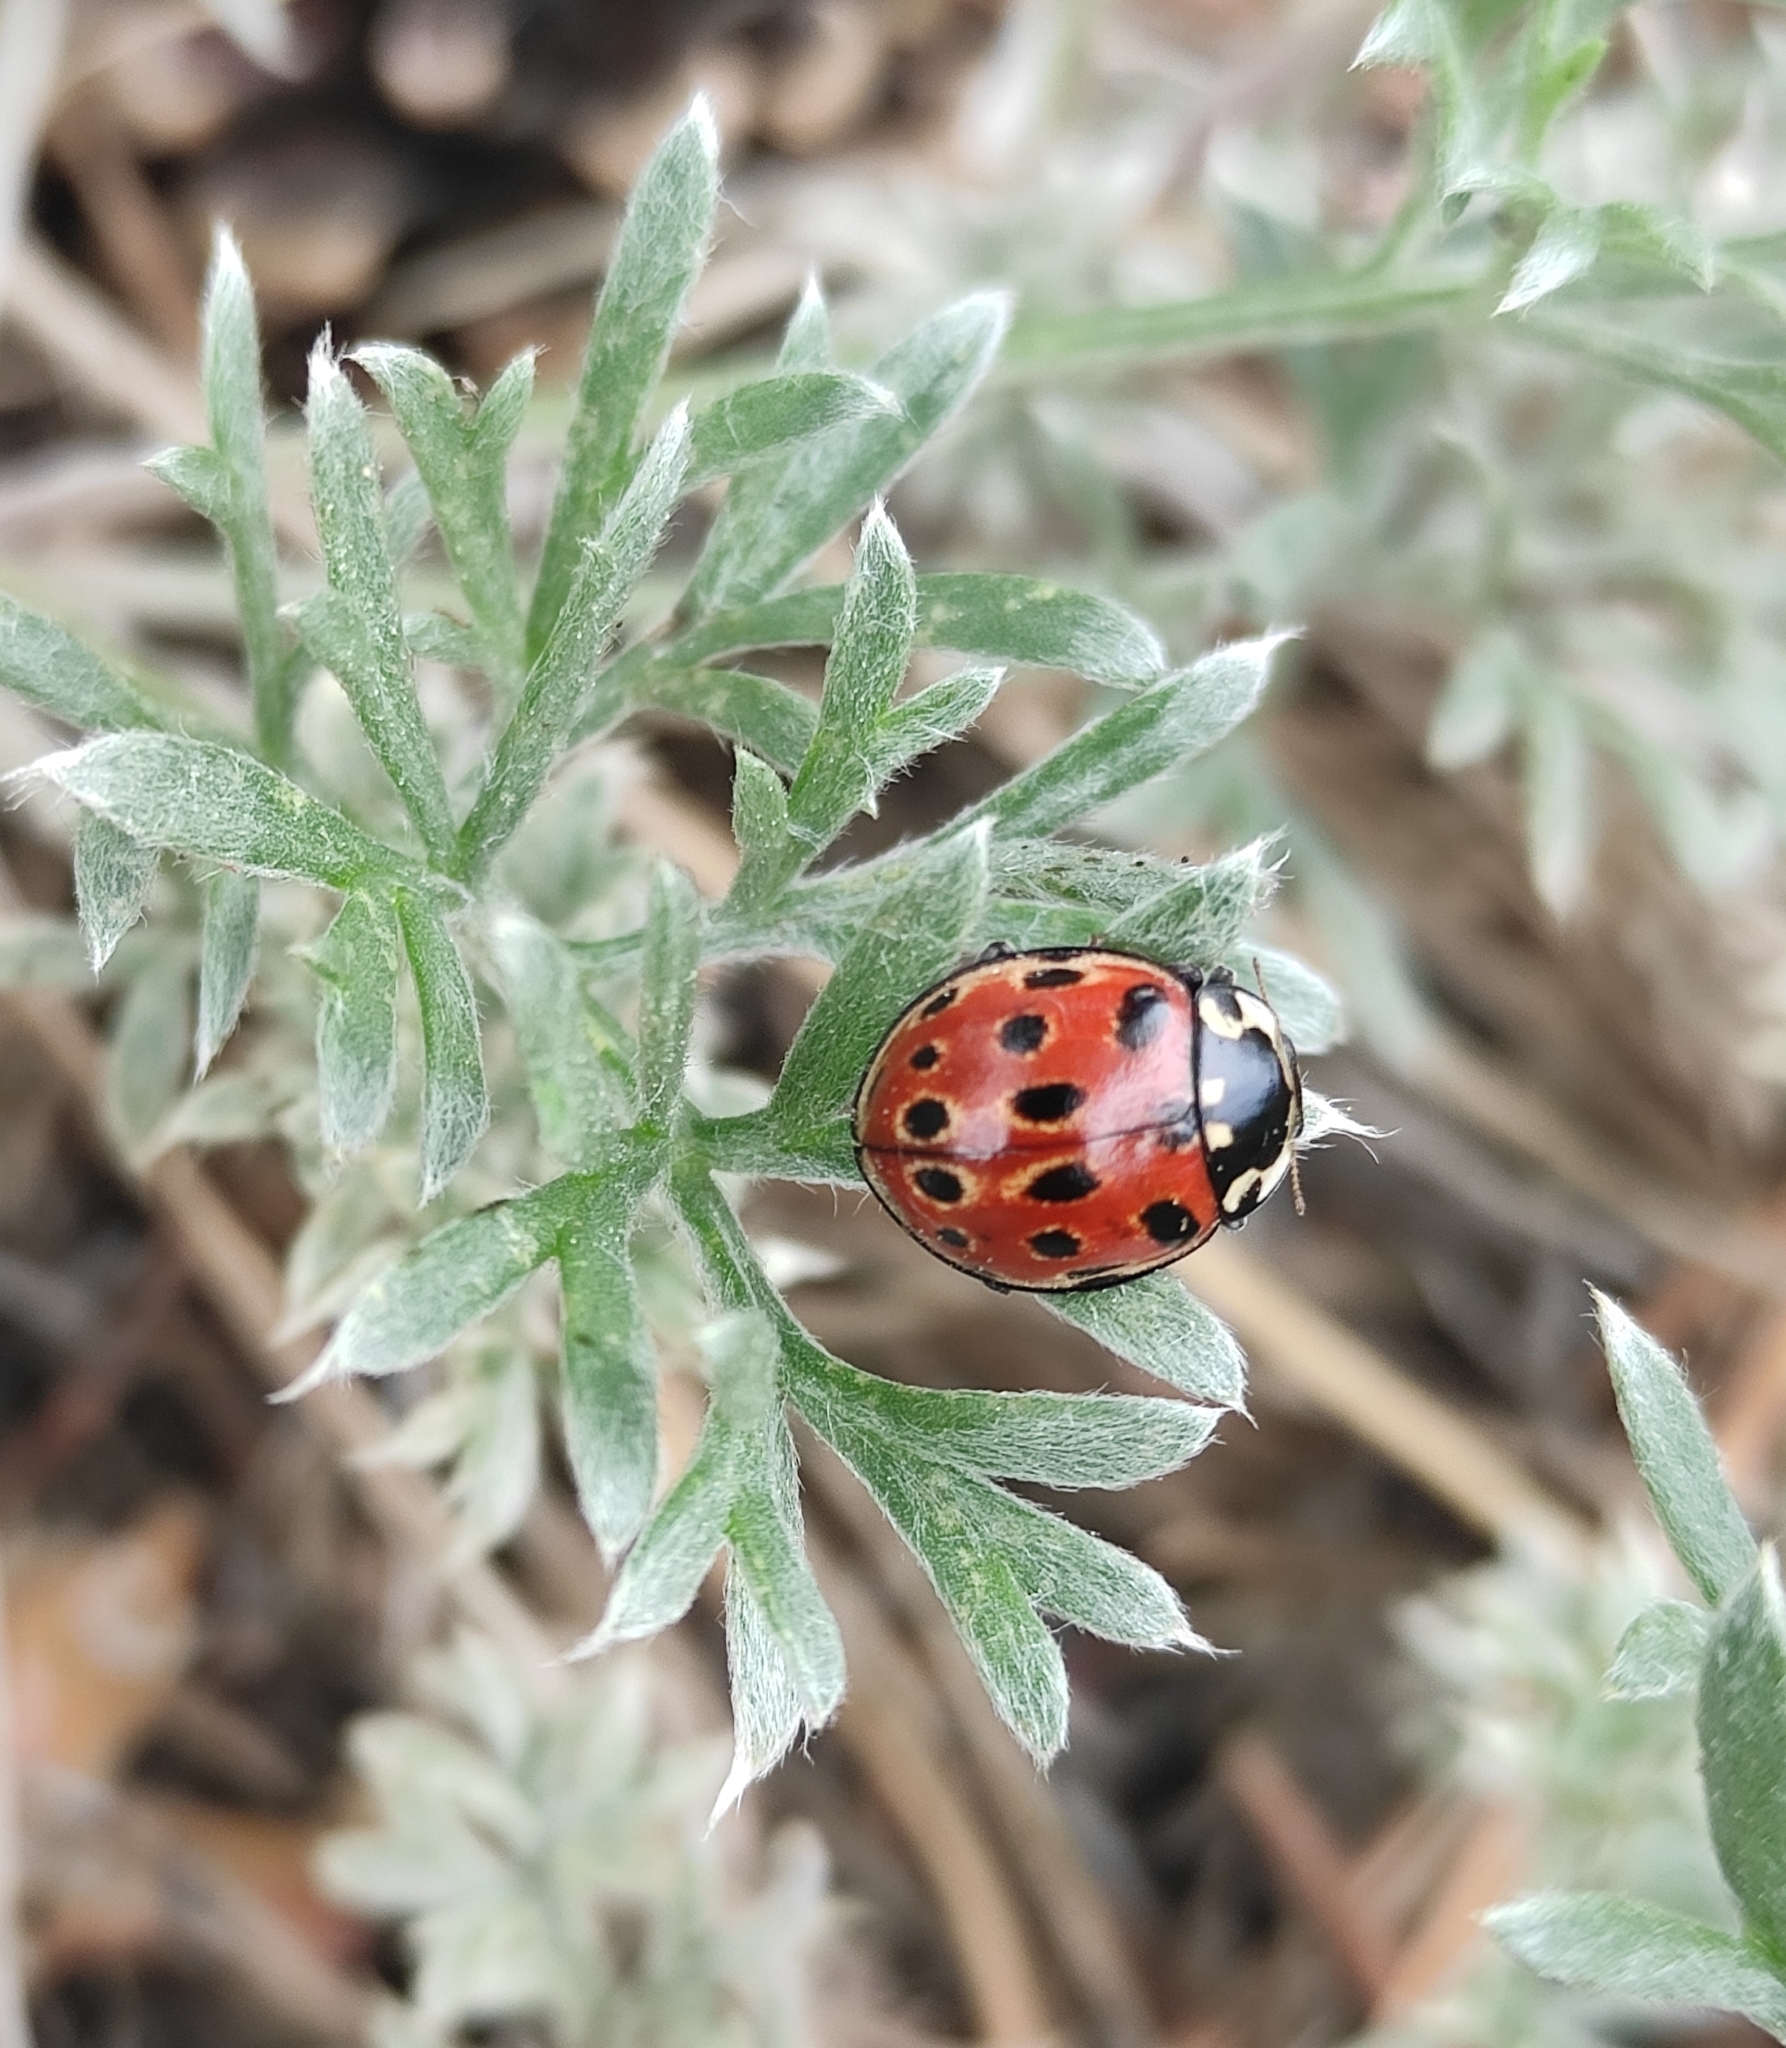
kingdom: Animalia
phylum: Arthropoda
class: Insecta
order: Coleoptera
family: Coccinellidae
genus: Anatis
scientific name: Anatis ocellata
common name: Eyed ladybird
